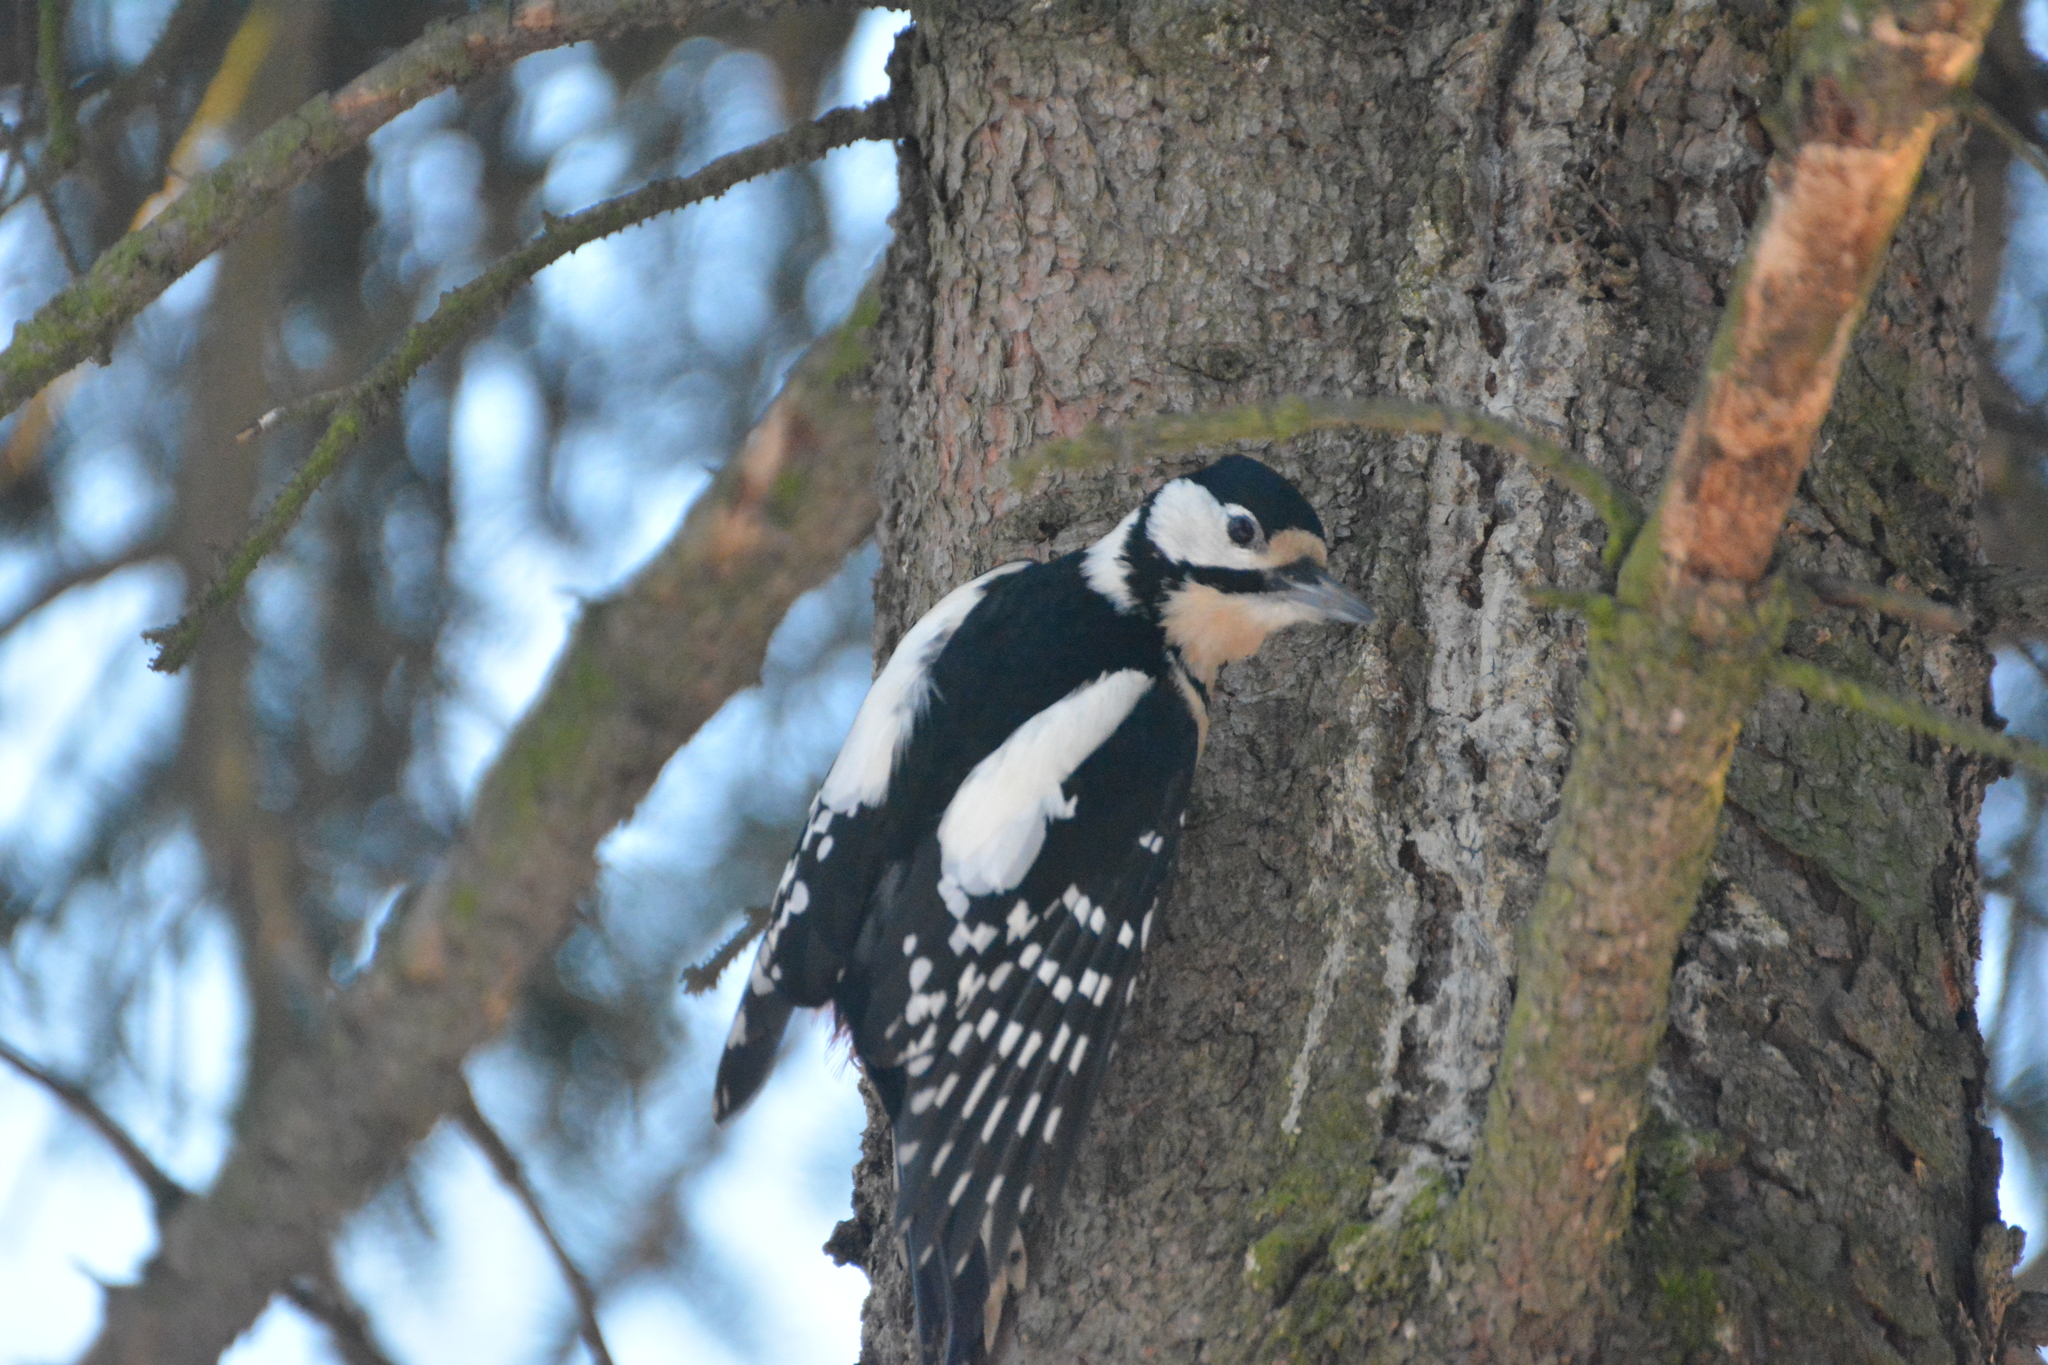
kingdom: Animalia
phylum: Chordata
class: Aves
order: Piciformes
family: Picidae
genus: Dendrocopos
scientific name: Dendrocopos major
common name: Great spotted woodpecker
